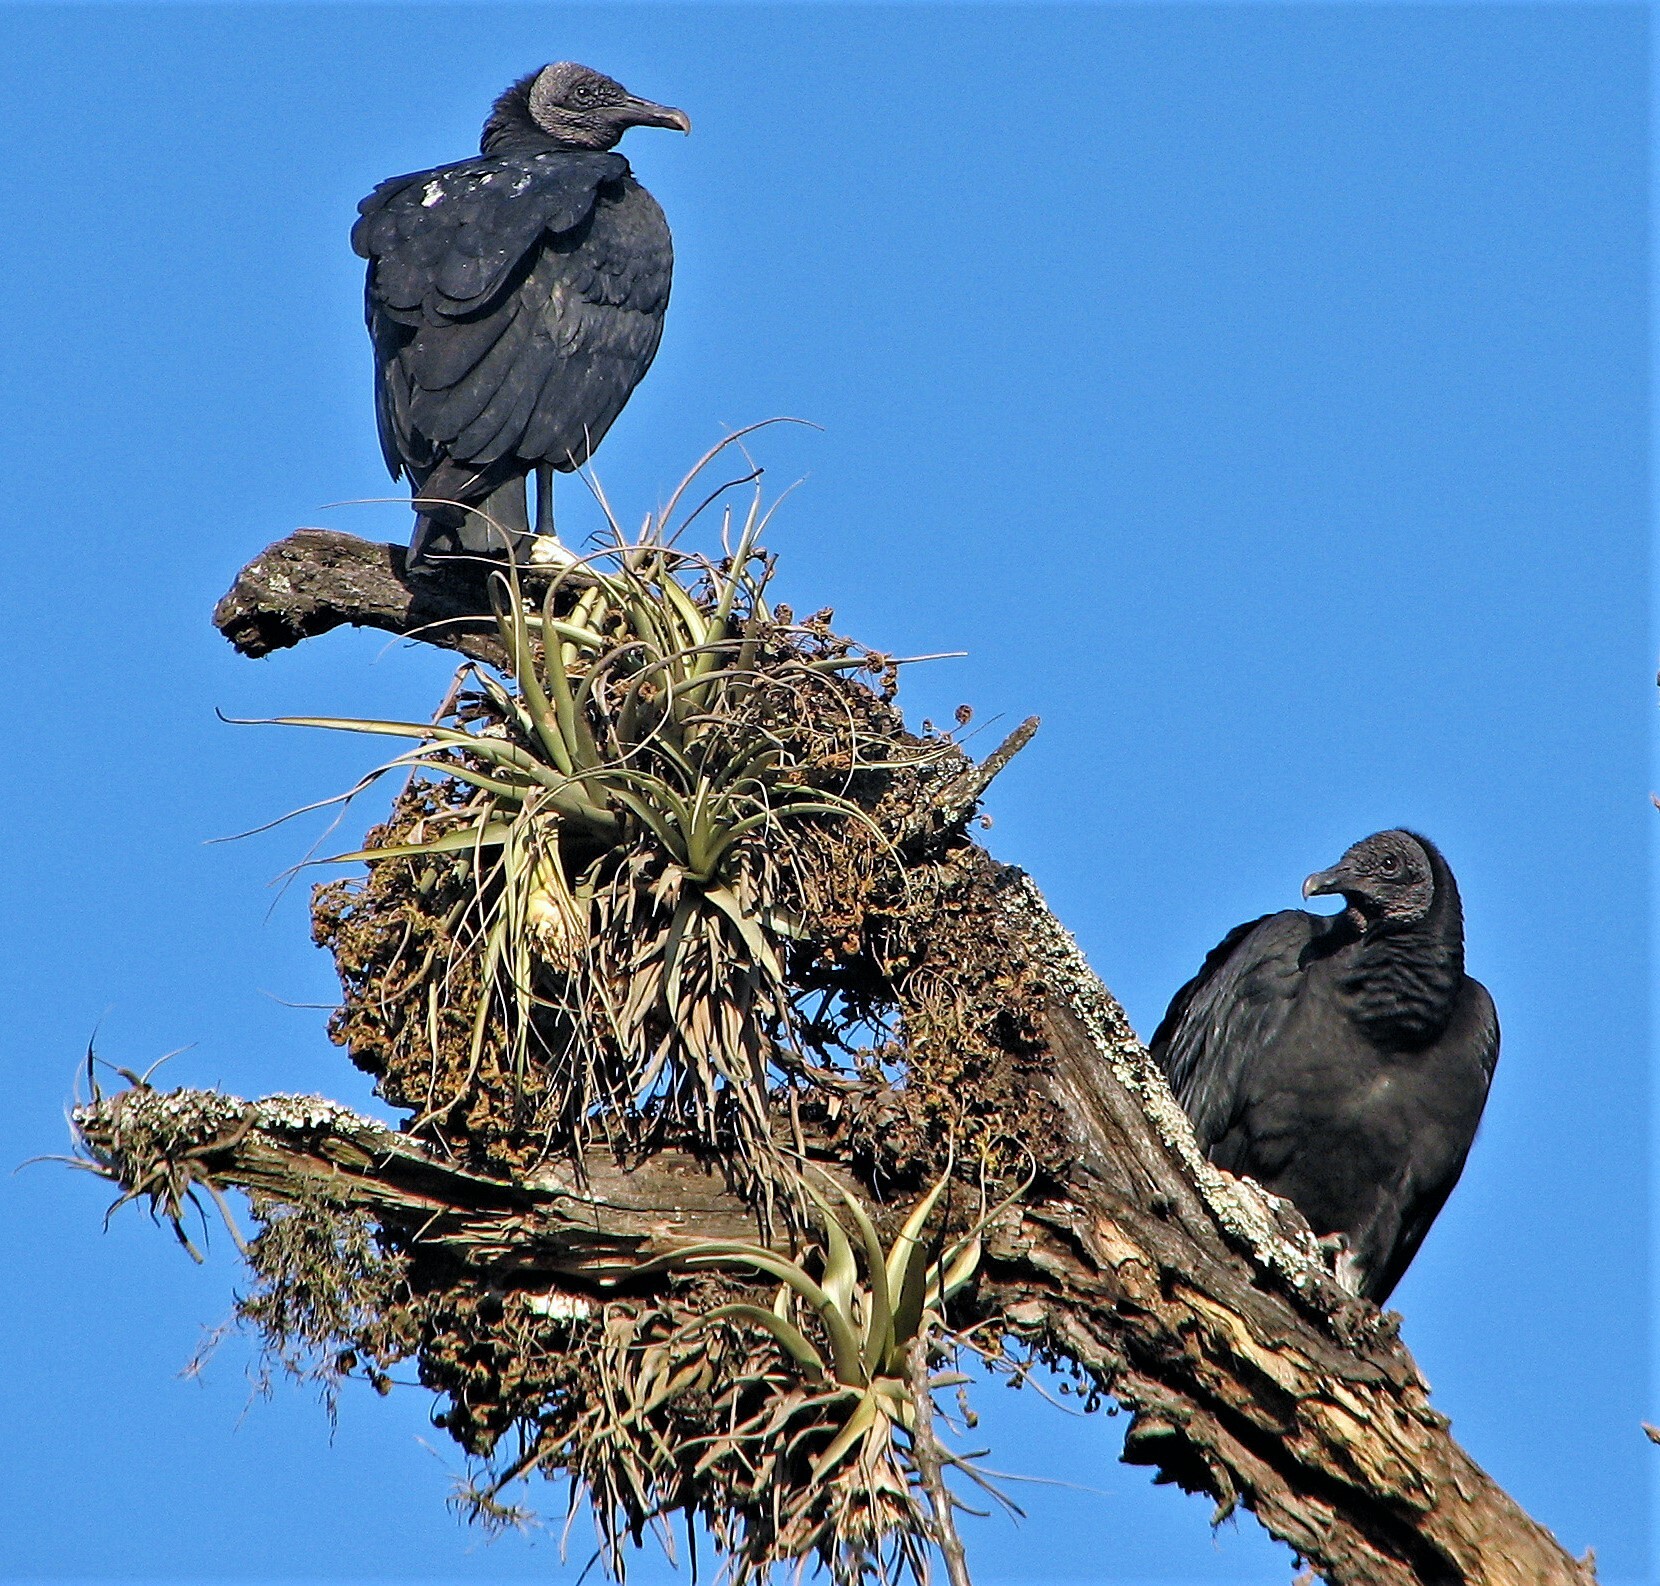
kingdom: Animalia
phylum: Chordata
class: Aves
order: Accipitriformes
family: Cathartidae
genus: Coragyps
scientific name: Coragyps atratus
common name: Black vulture
